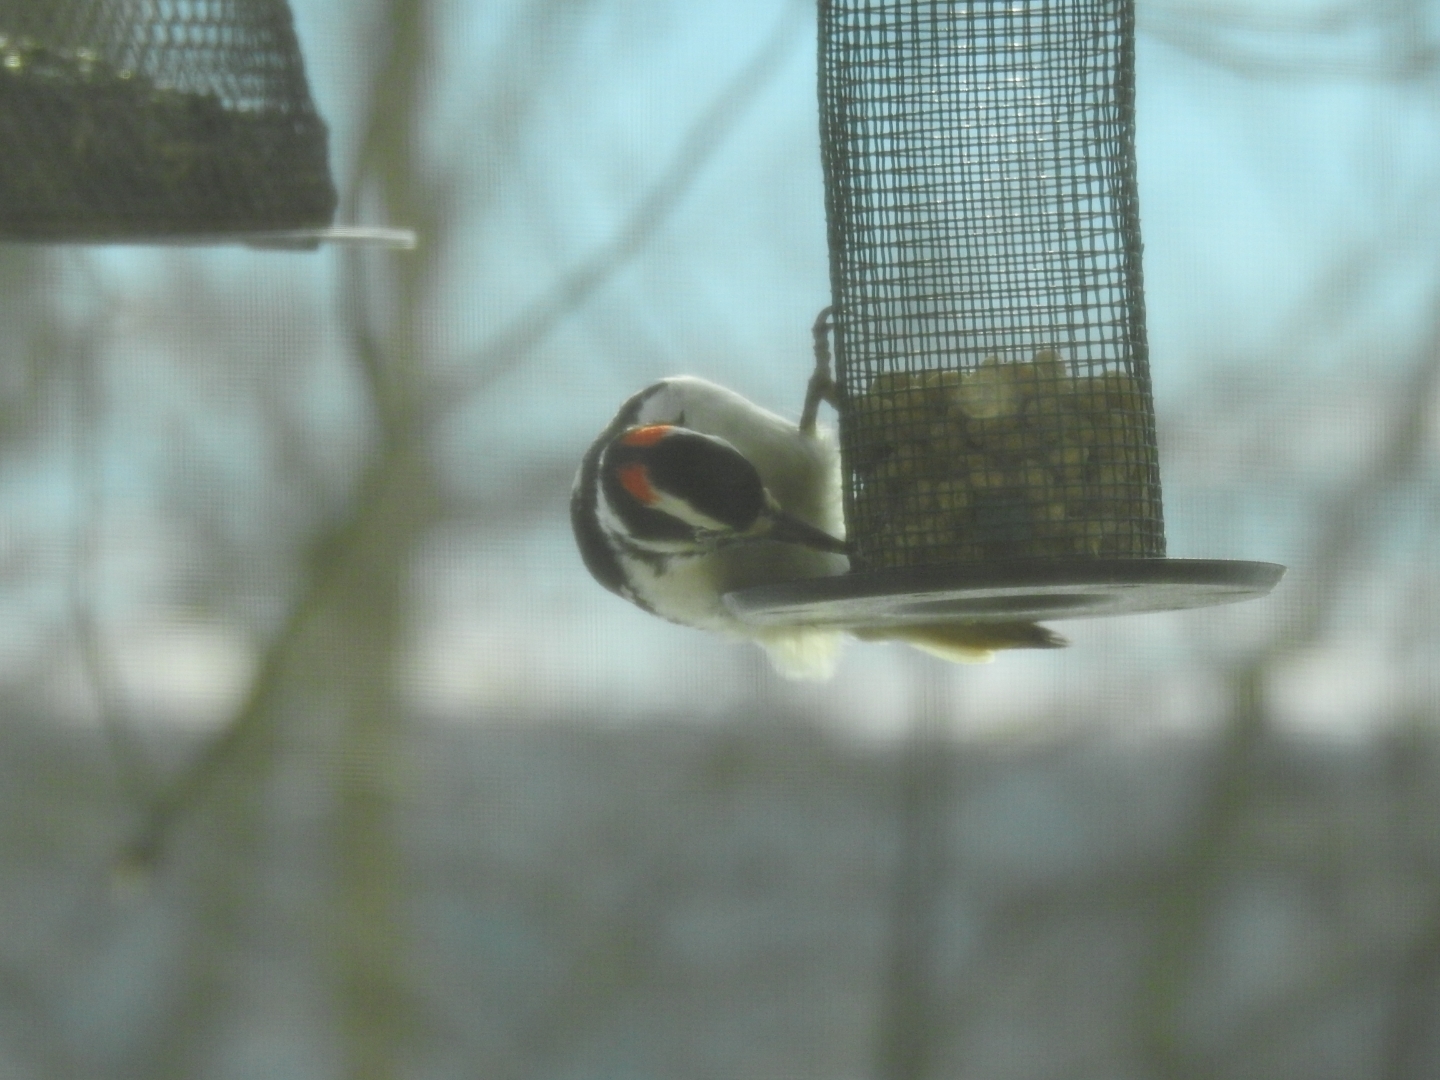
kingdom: Animalia
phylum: Chordata
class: Aves
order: Piciformes
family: Picidae
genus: Leuconotopicus
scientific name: Leuconotopicus villosus
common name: Hairy woodpecker
